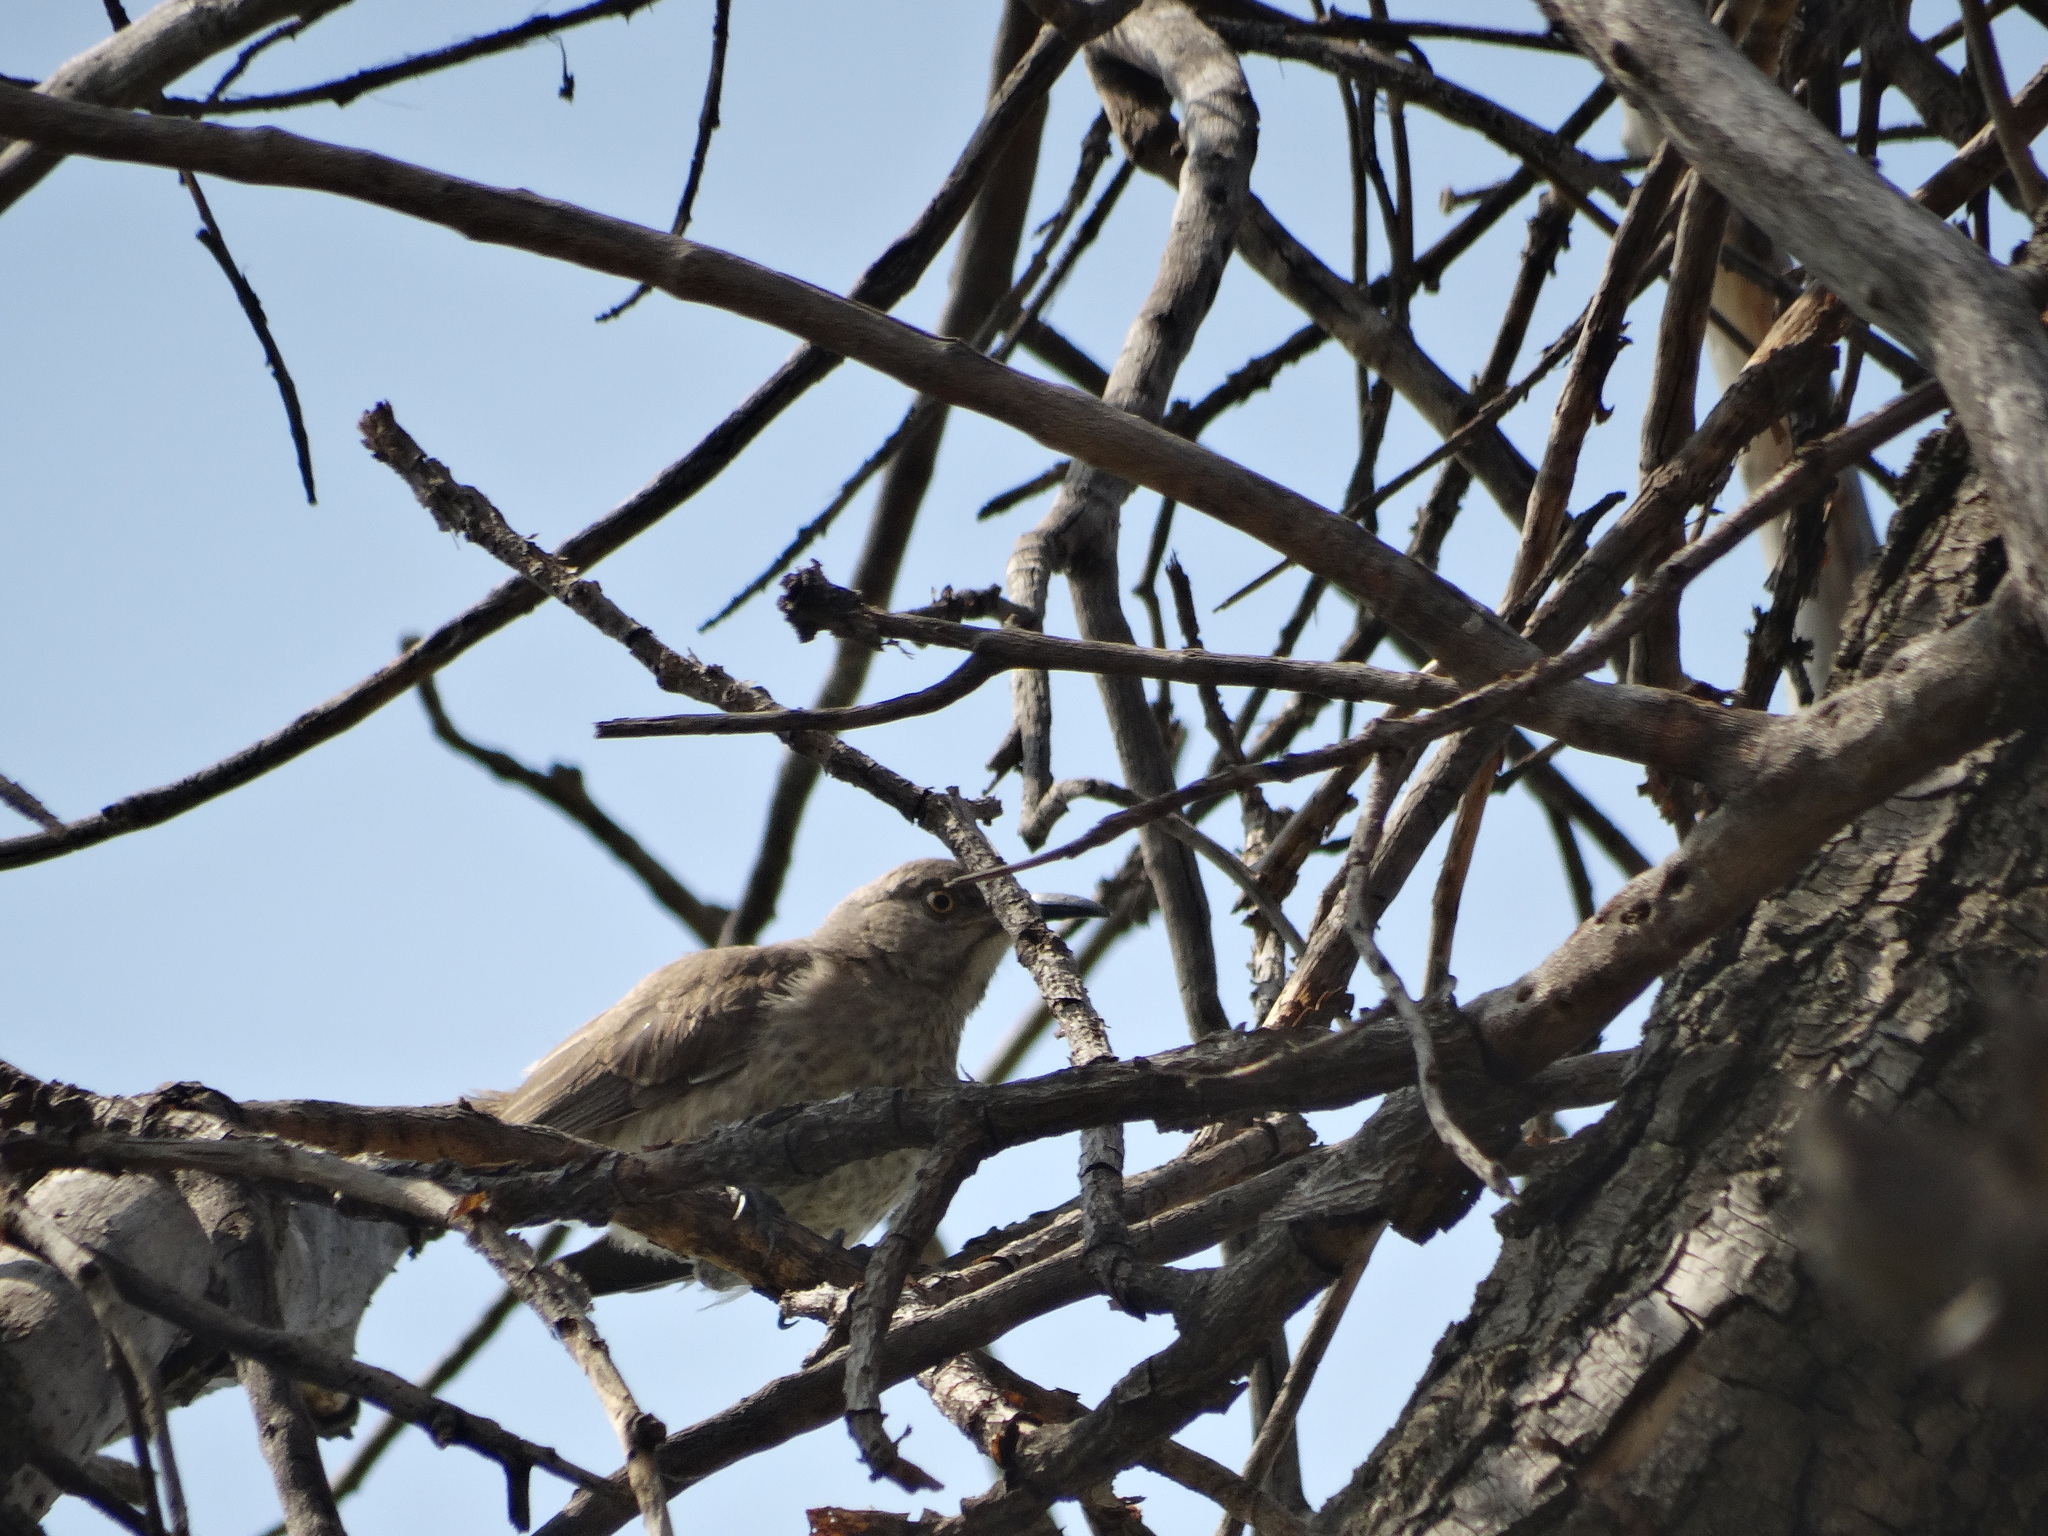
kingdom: Animalia
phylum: Chordata
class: Aves
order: Passeriformes
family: Mimidae
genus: Toxostoma
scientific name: Toxostoma curvirostre
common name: Curve-billed thrasher
